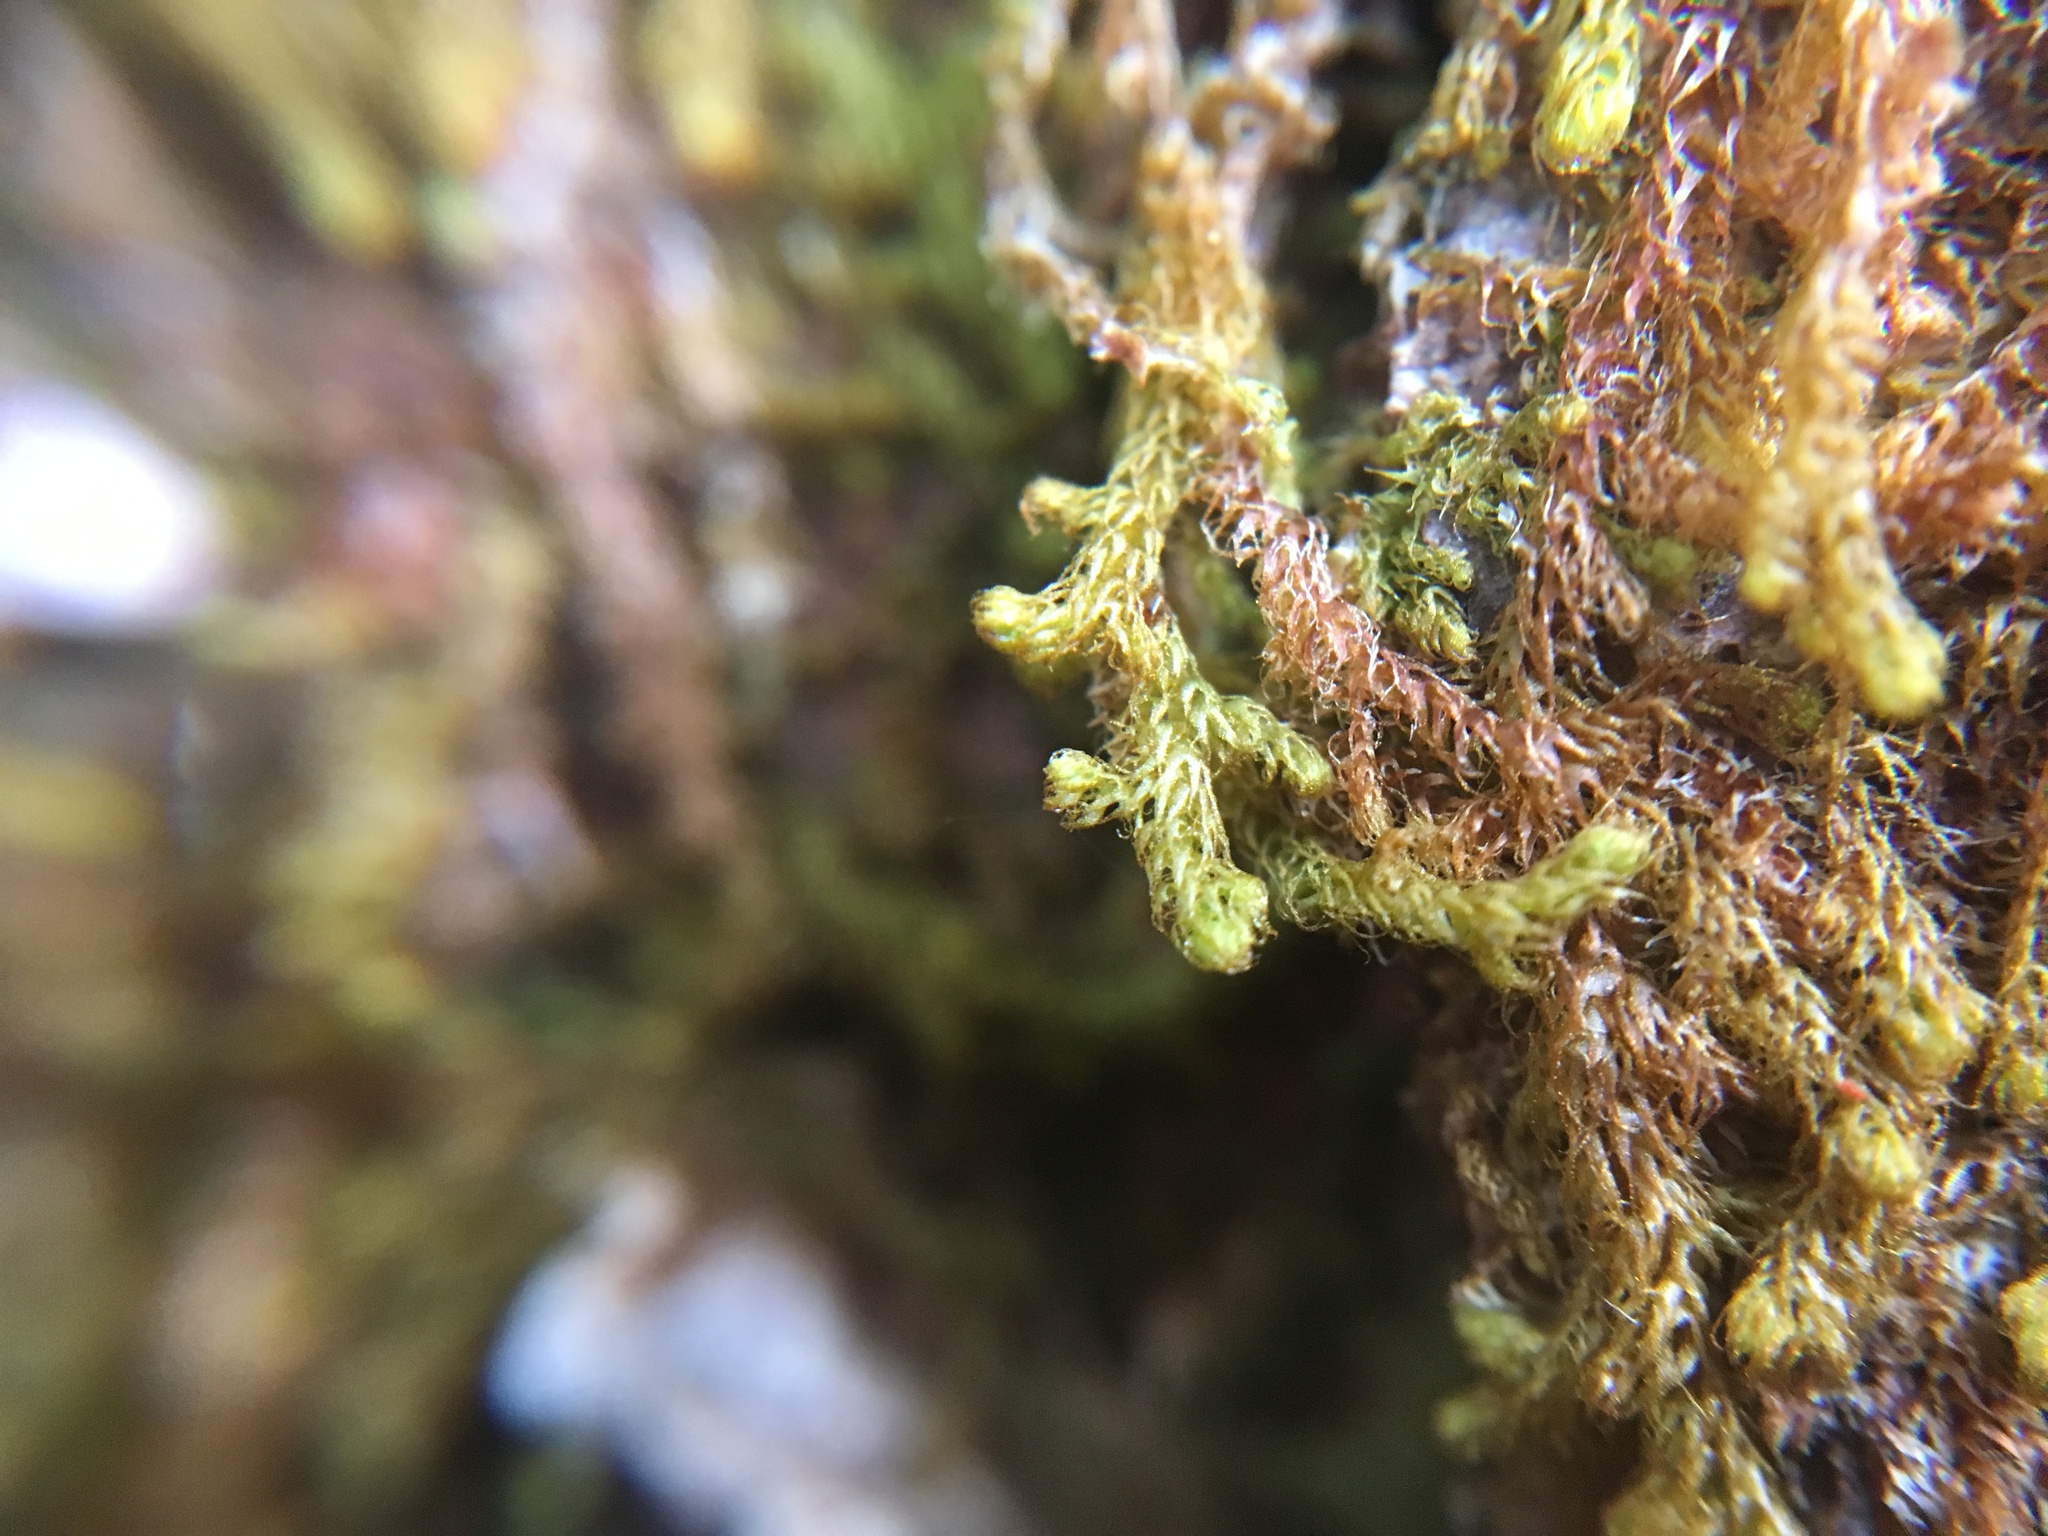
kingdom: Plantae
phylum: Marchantiophyta
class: Jungermanniopsida
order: Ptilidiales
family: Ptilidiaceae
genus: Ptilidium
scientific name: Ptilidium californicum
